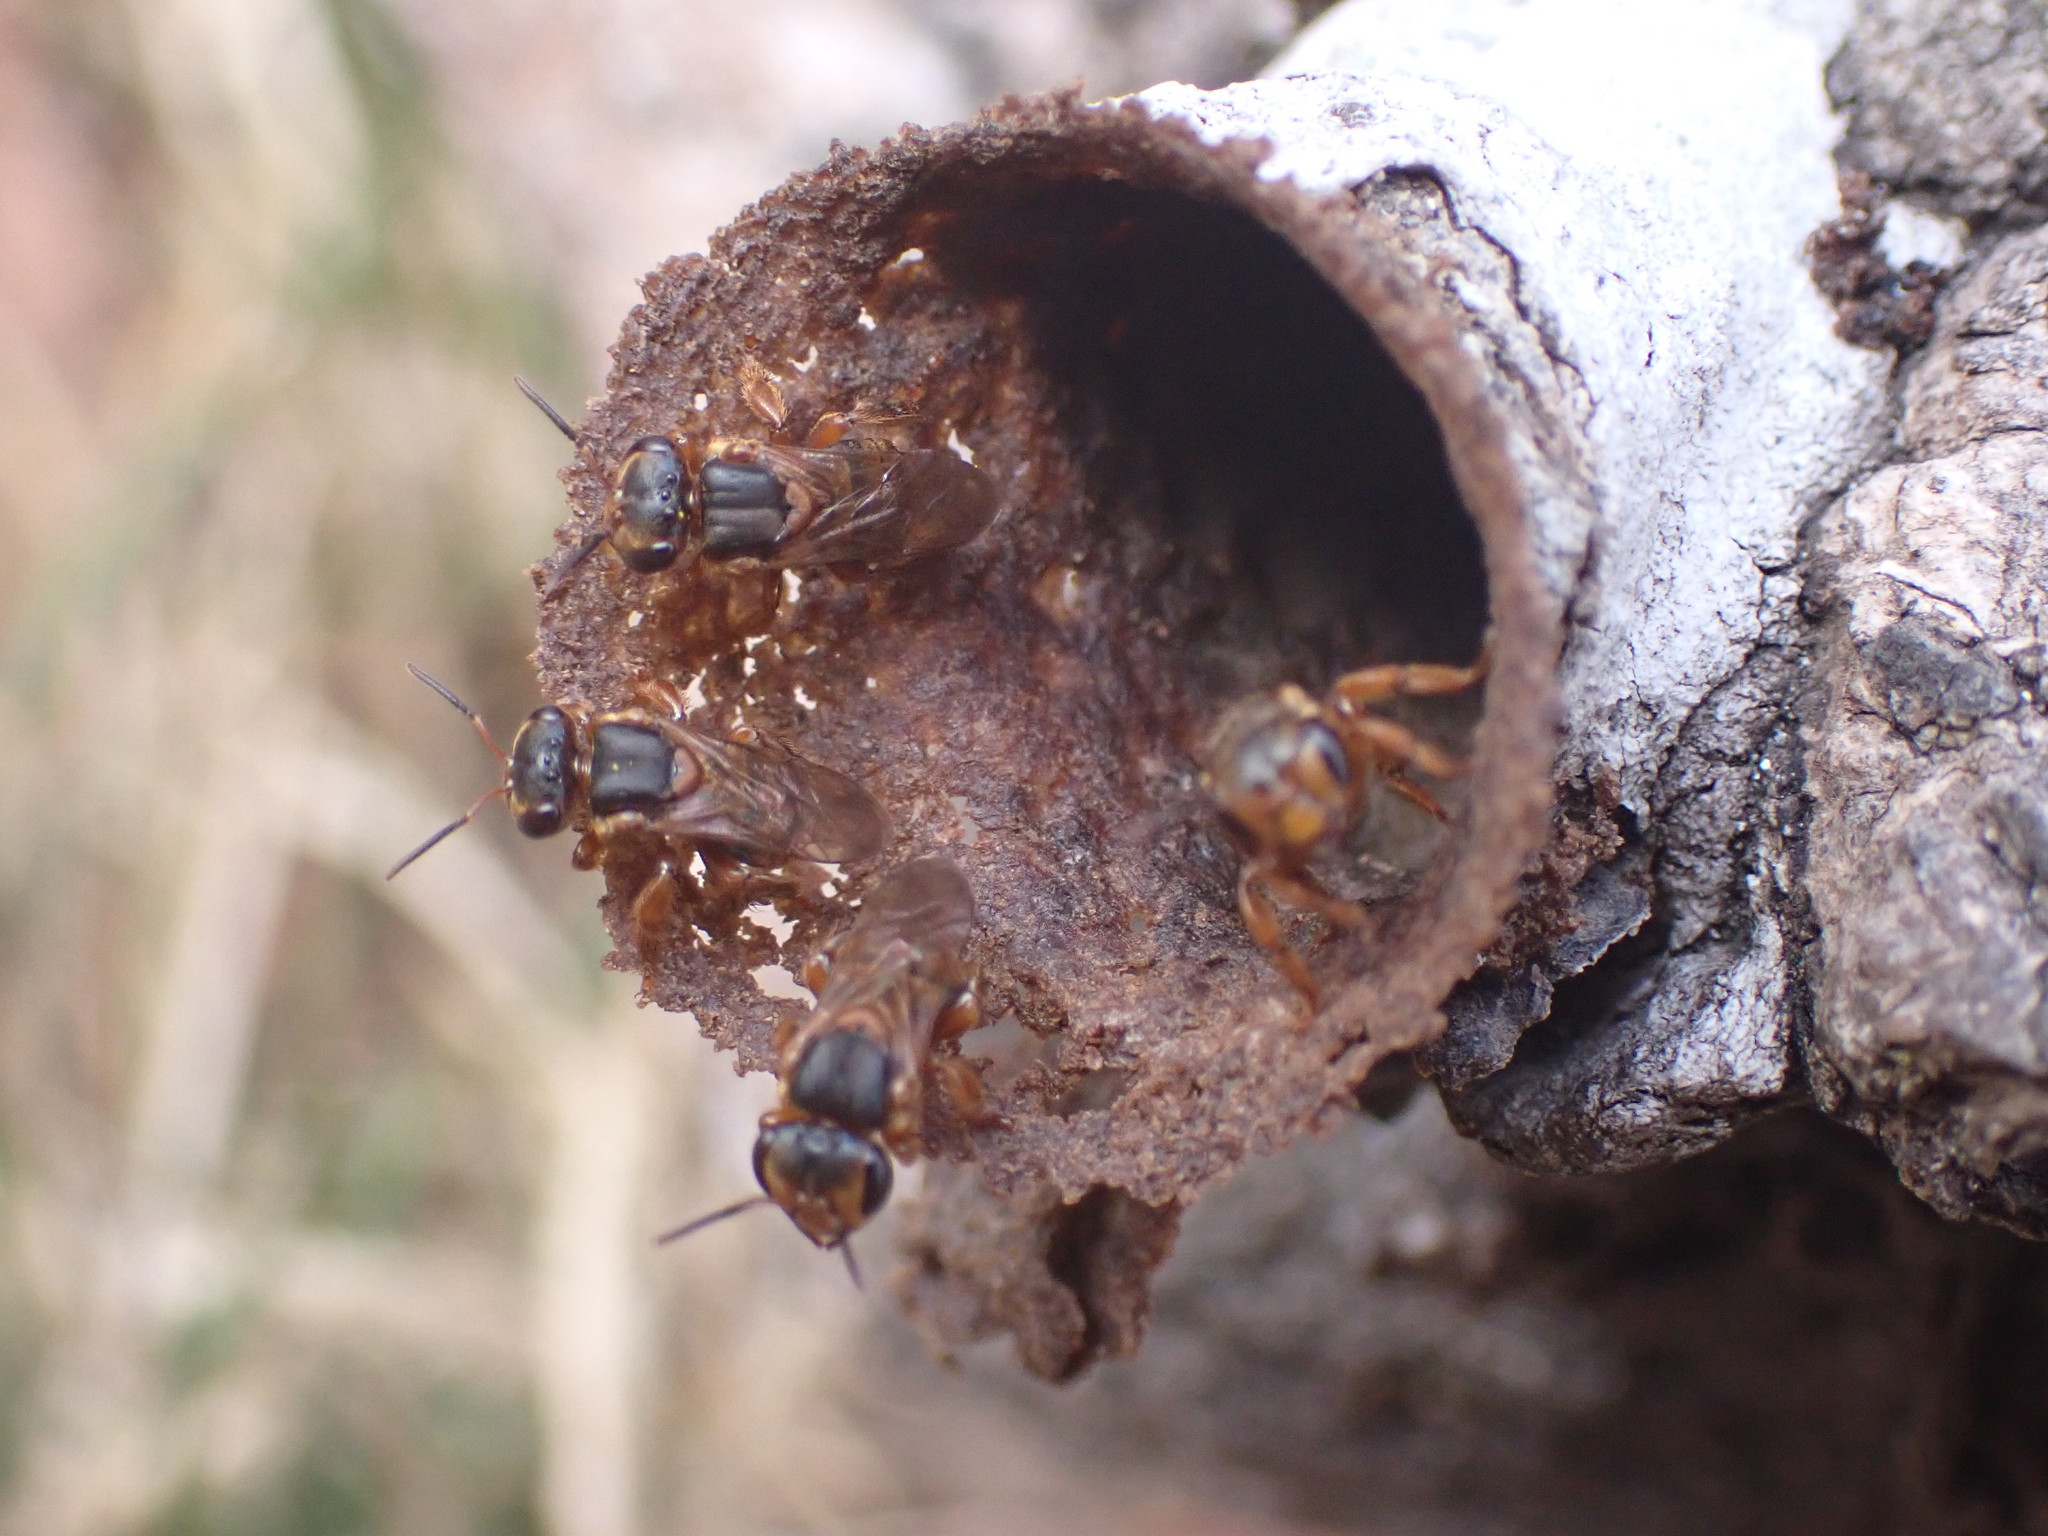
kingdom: Animalia
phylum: Arthropoda
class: Insecta
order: Hymenoptera
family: Apidae
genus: Scaptotrigona
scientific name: Scaptotrigona pectoralis
